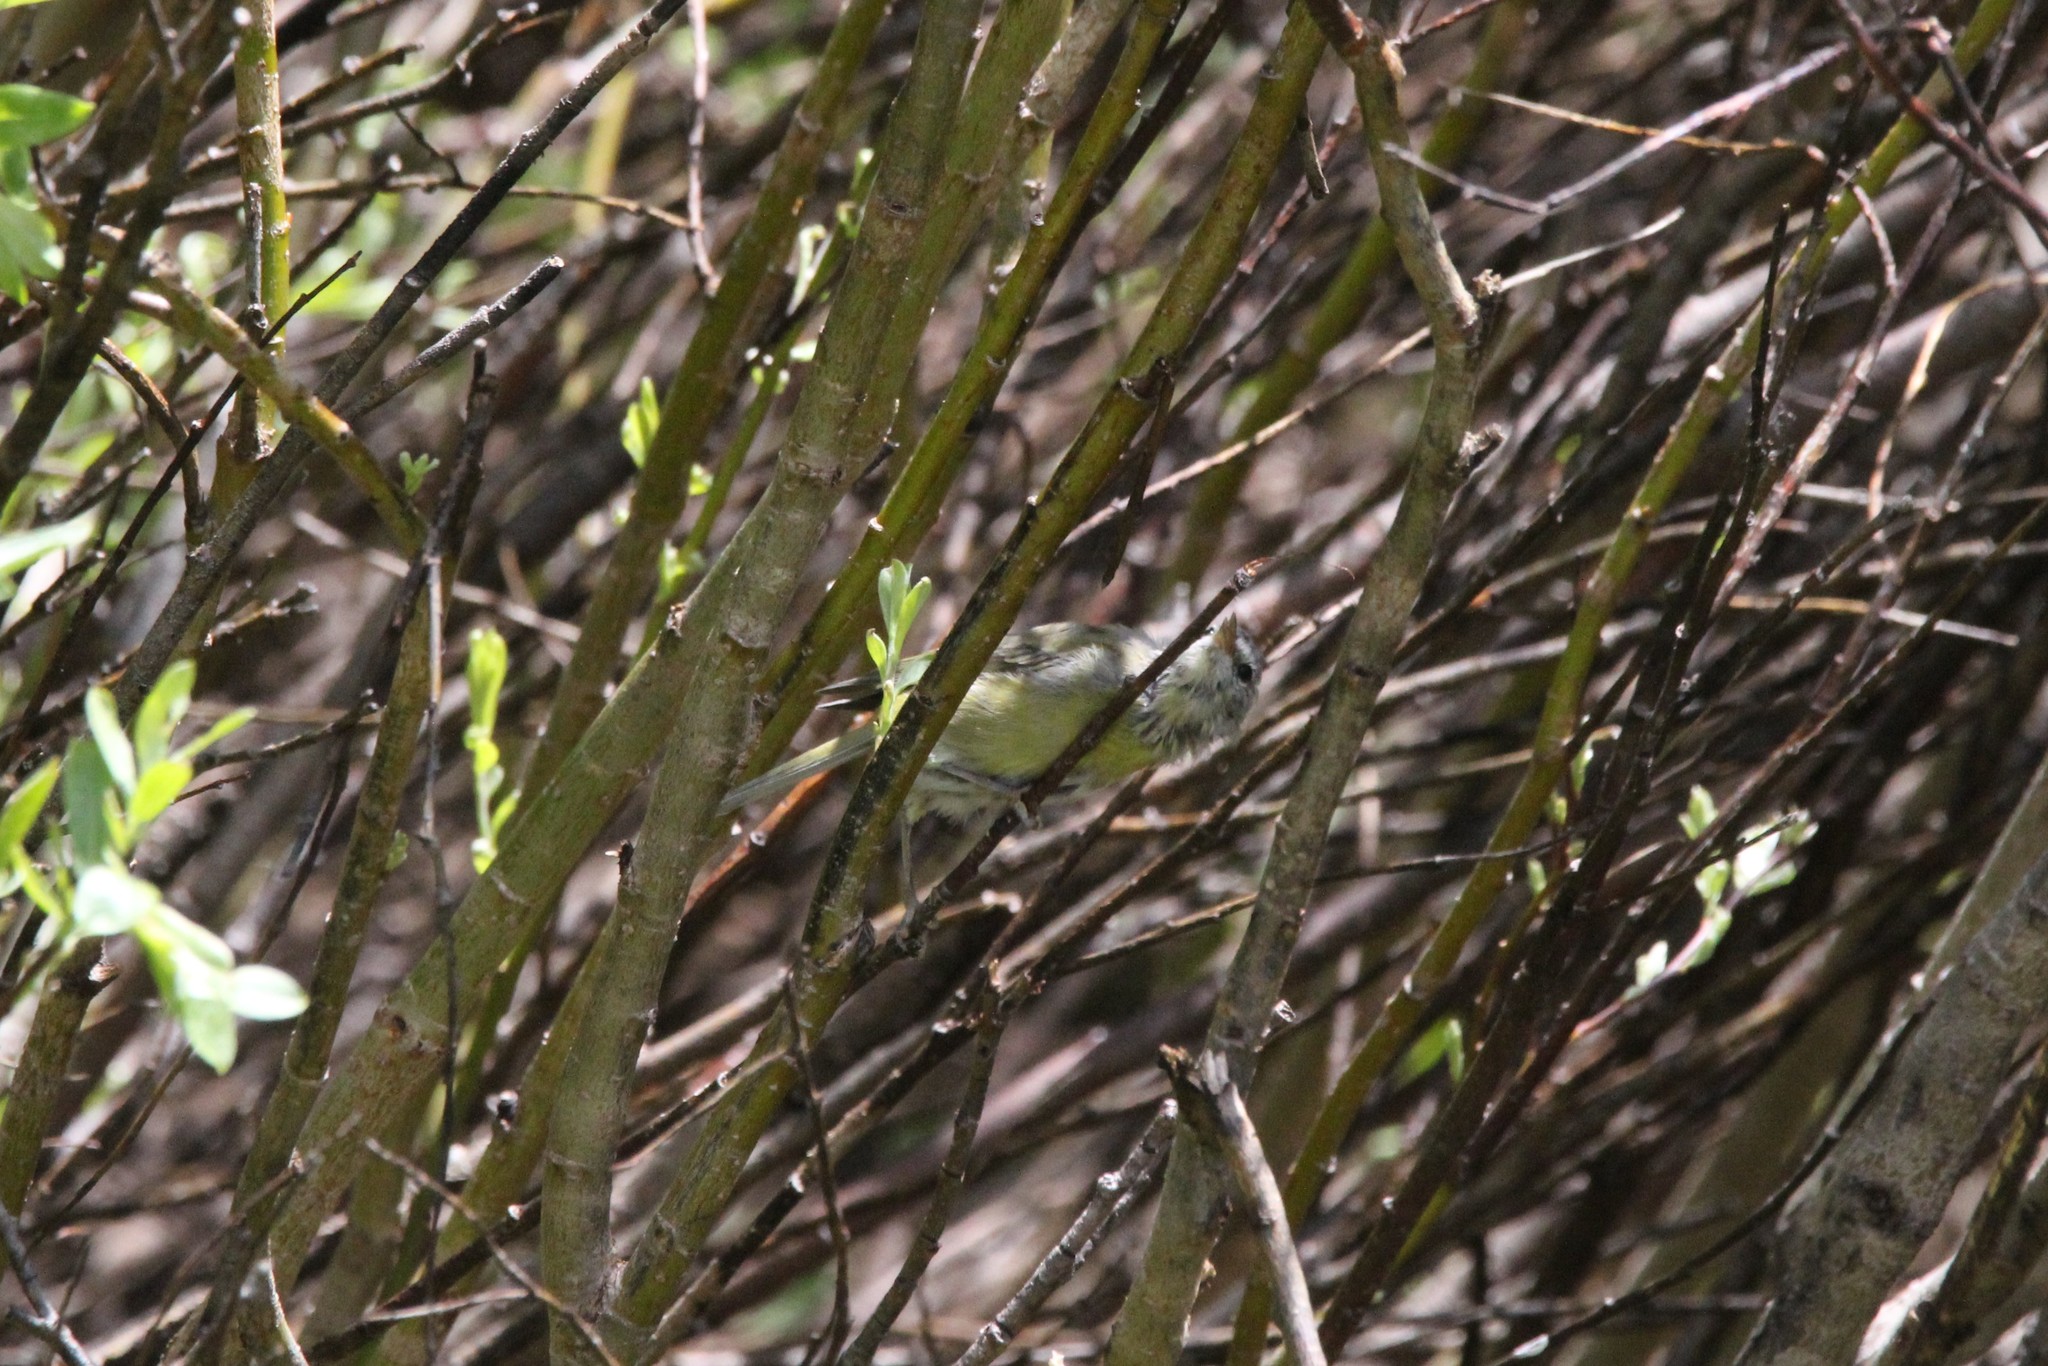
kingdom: Animalia
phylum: Chordata
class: Aves
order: Passeriformes
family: Parulidae
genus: Leiothlypis
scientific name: Leiothlypis celata
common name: Orange-crowned warbler
